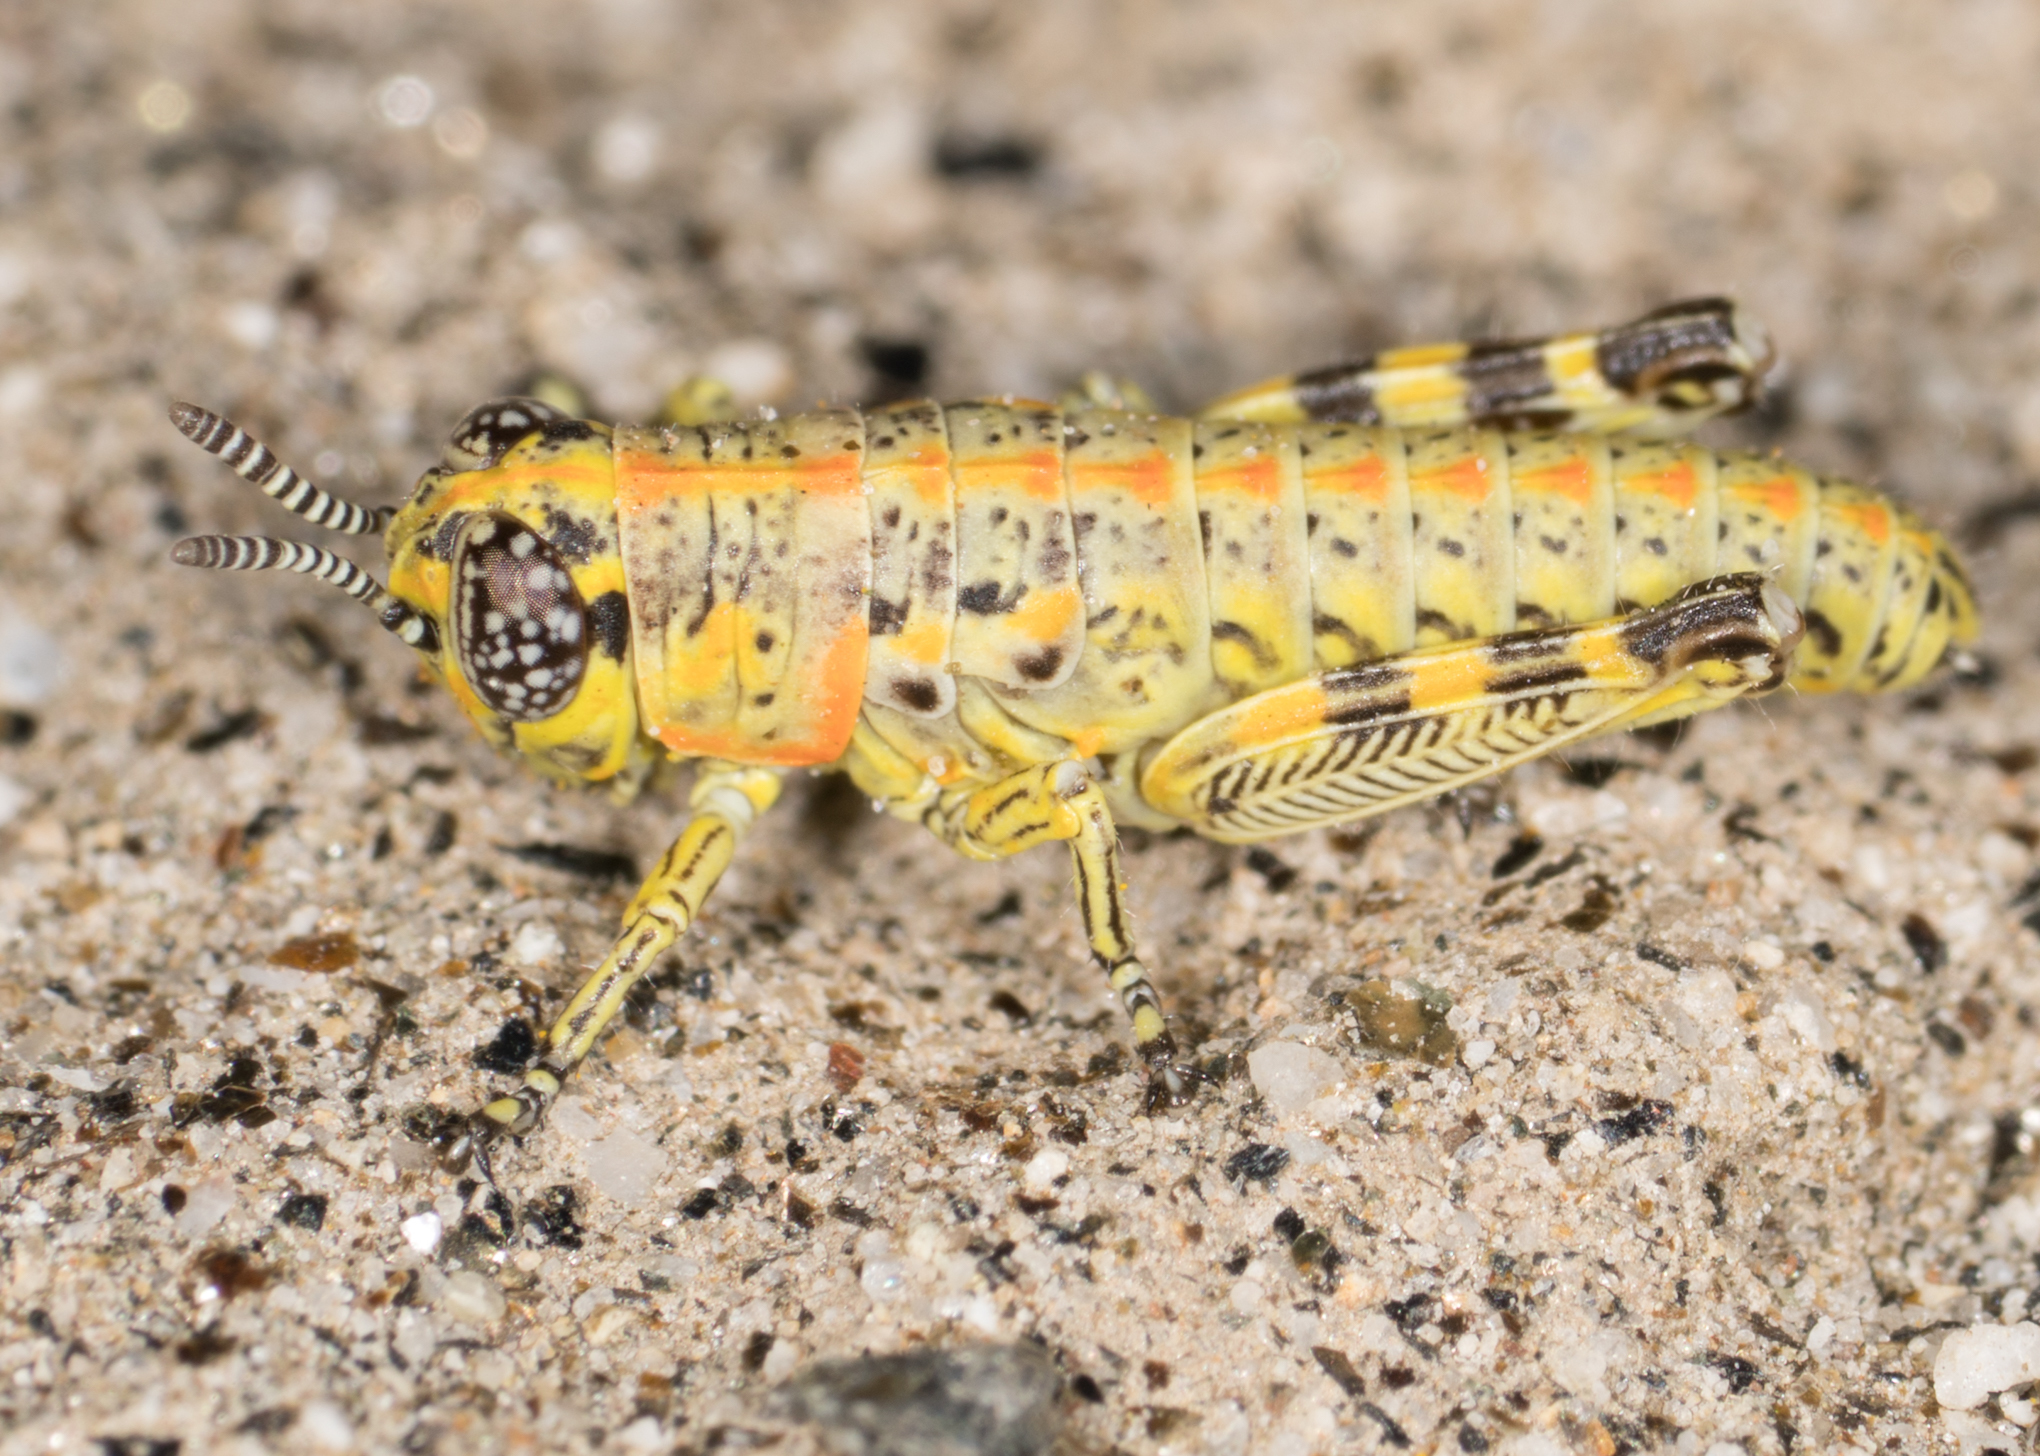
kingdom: Animalia
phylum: Arthropoda
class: Insecta
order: Orthoptera
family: Acrididae
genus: Poecilotettix
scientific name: Poecilotettix sanguineus
